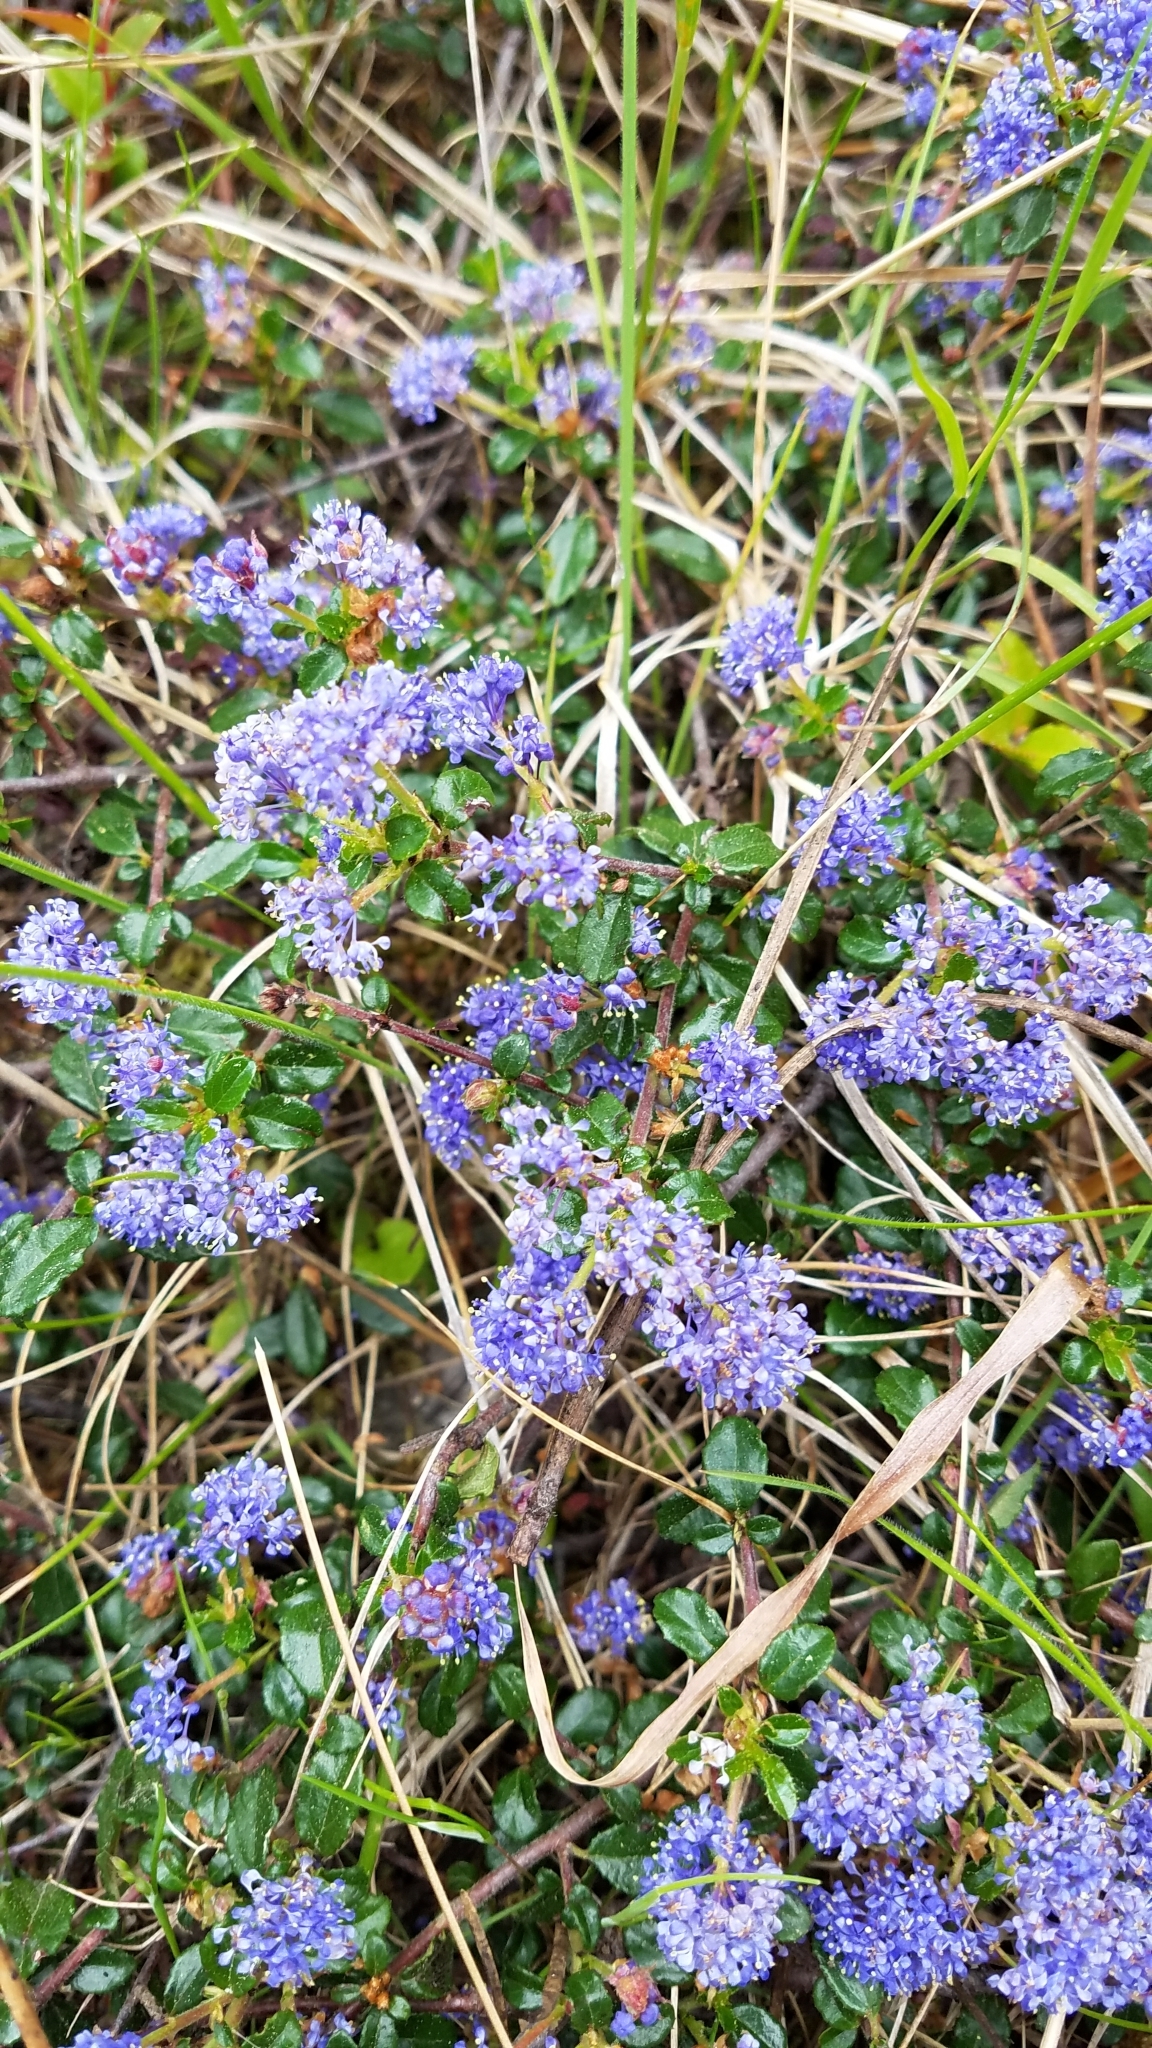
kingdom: Plantae
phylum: Tracheophyta
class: Magnoliopsida
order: Rosales
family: Rhamnaceae
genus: Ceanothus
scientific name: Ceanothus gloriosus
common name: Point reyes ceanothus
